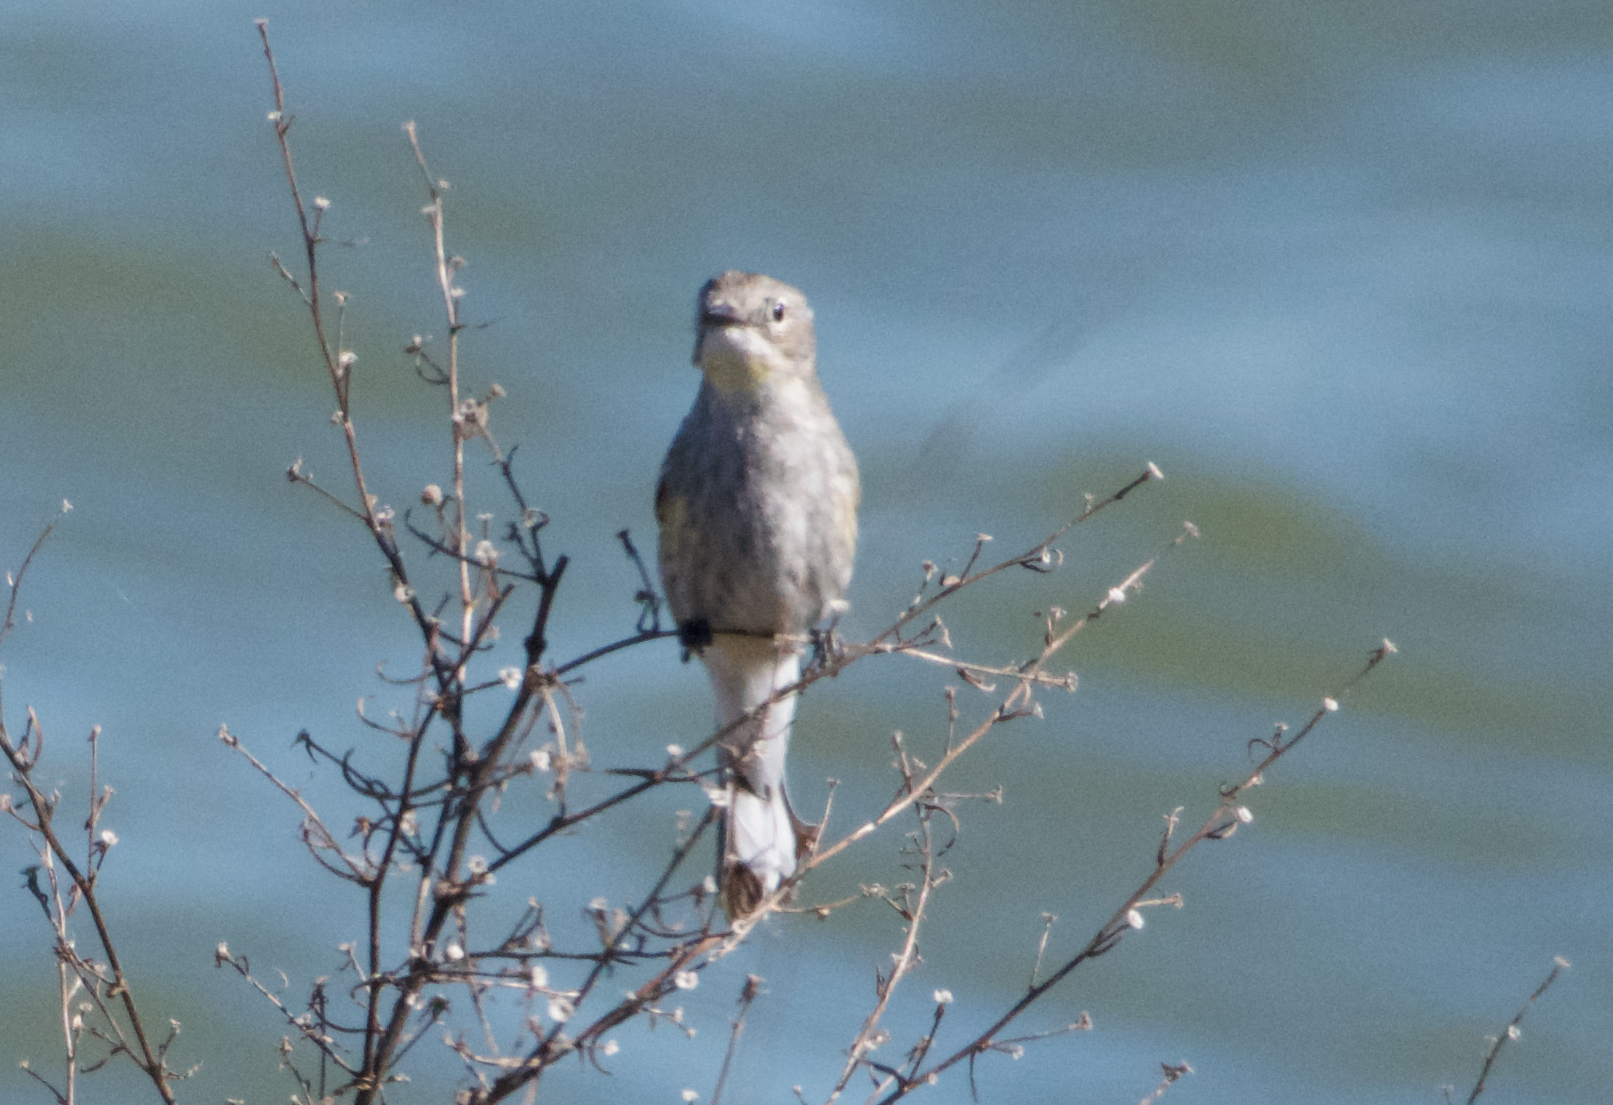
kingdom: Animalia
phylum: Chordata
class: Aves
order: Passeriformes
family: Parulidae
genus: Setophaga
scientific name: Setophaga coronata
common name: Myrtle warbler
